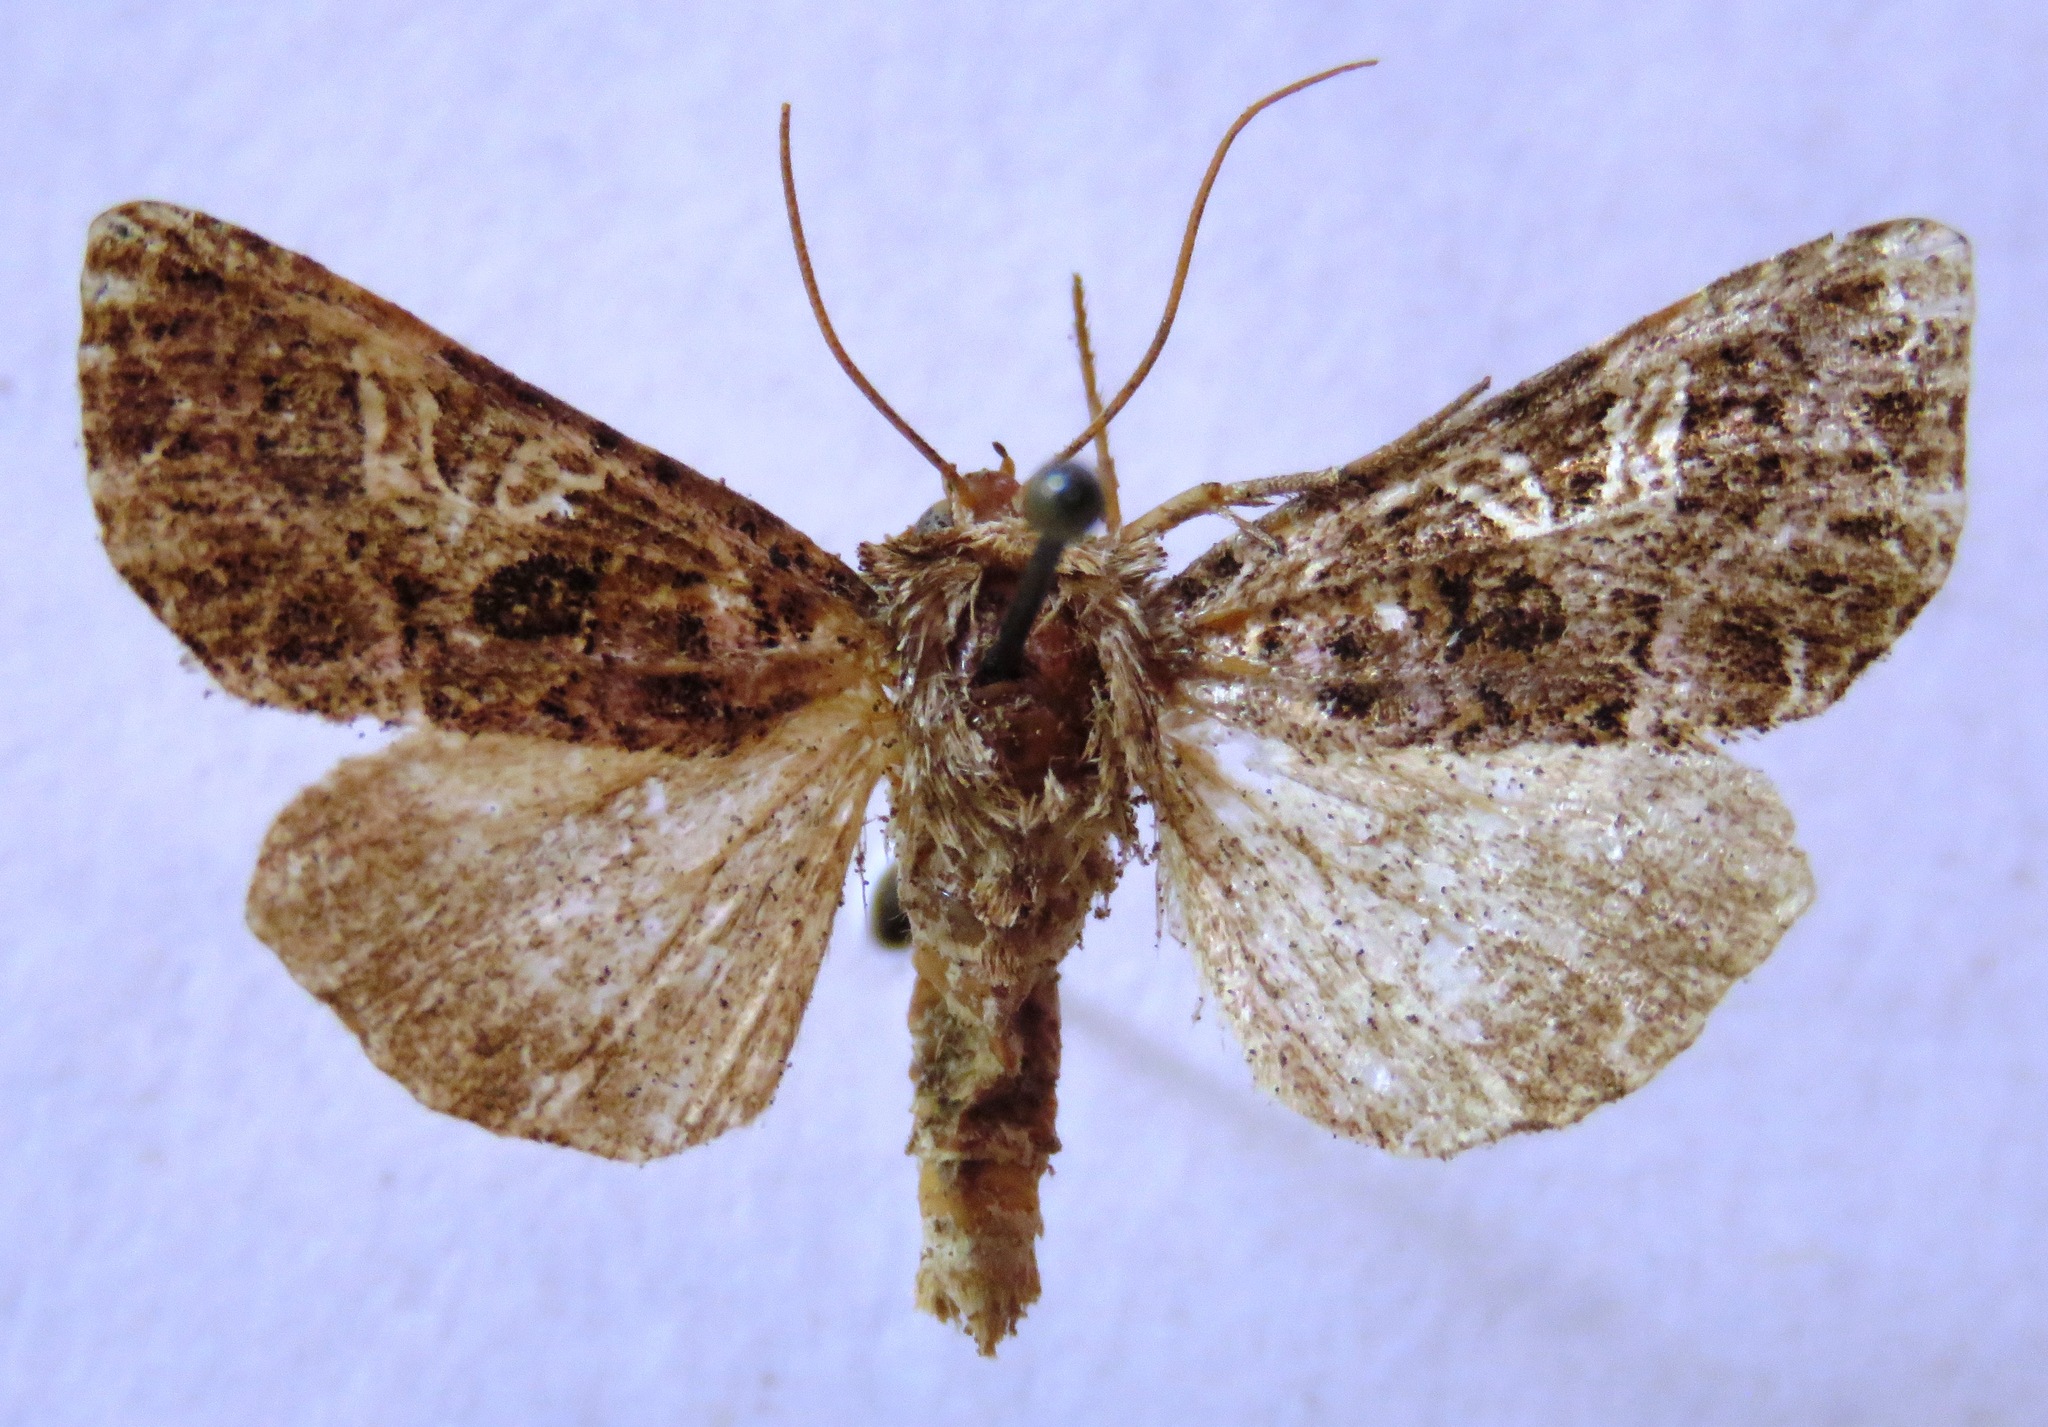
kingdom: Animalia
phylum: Arthropoda
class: Insecta
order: Lepidoptera
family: Noctuidae
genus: Sideridis
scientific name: Sideridis rivularis
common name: Campion
